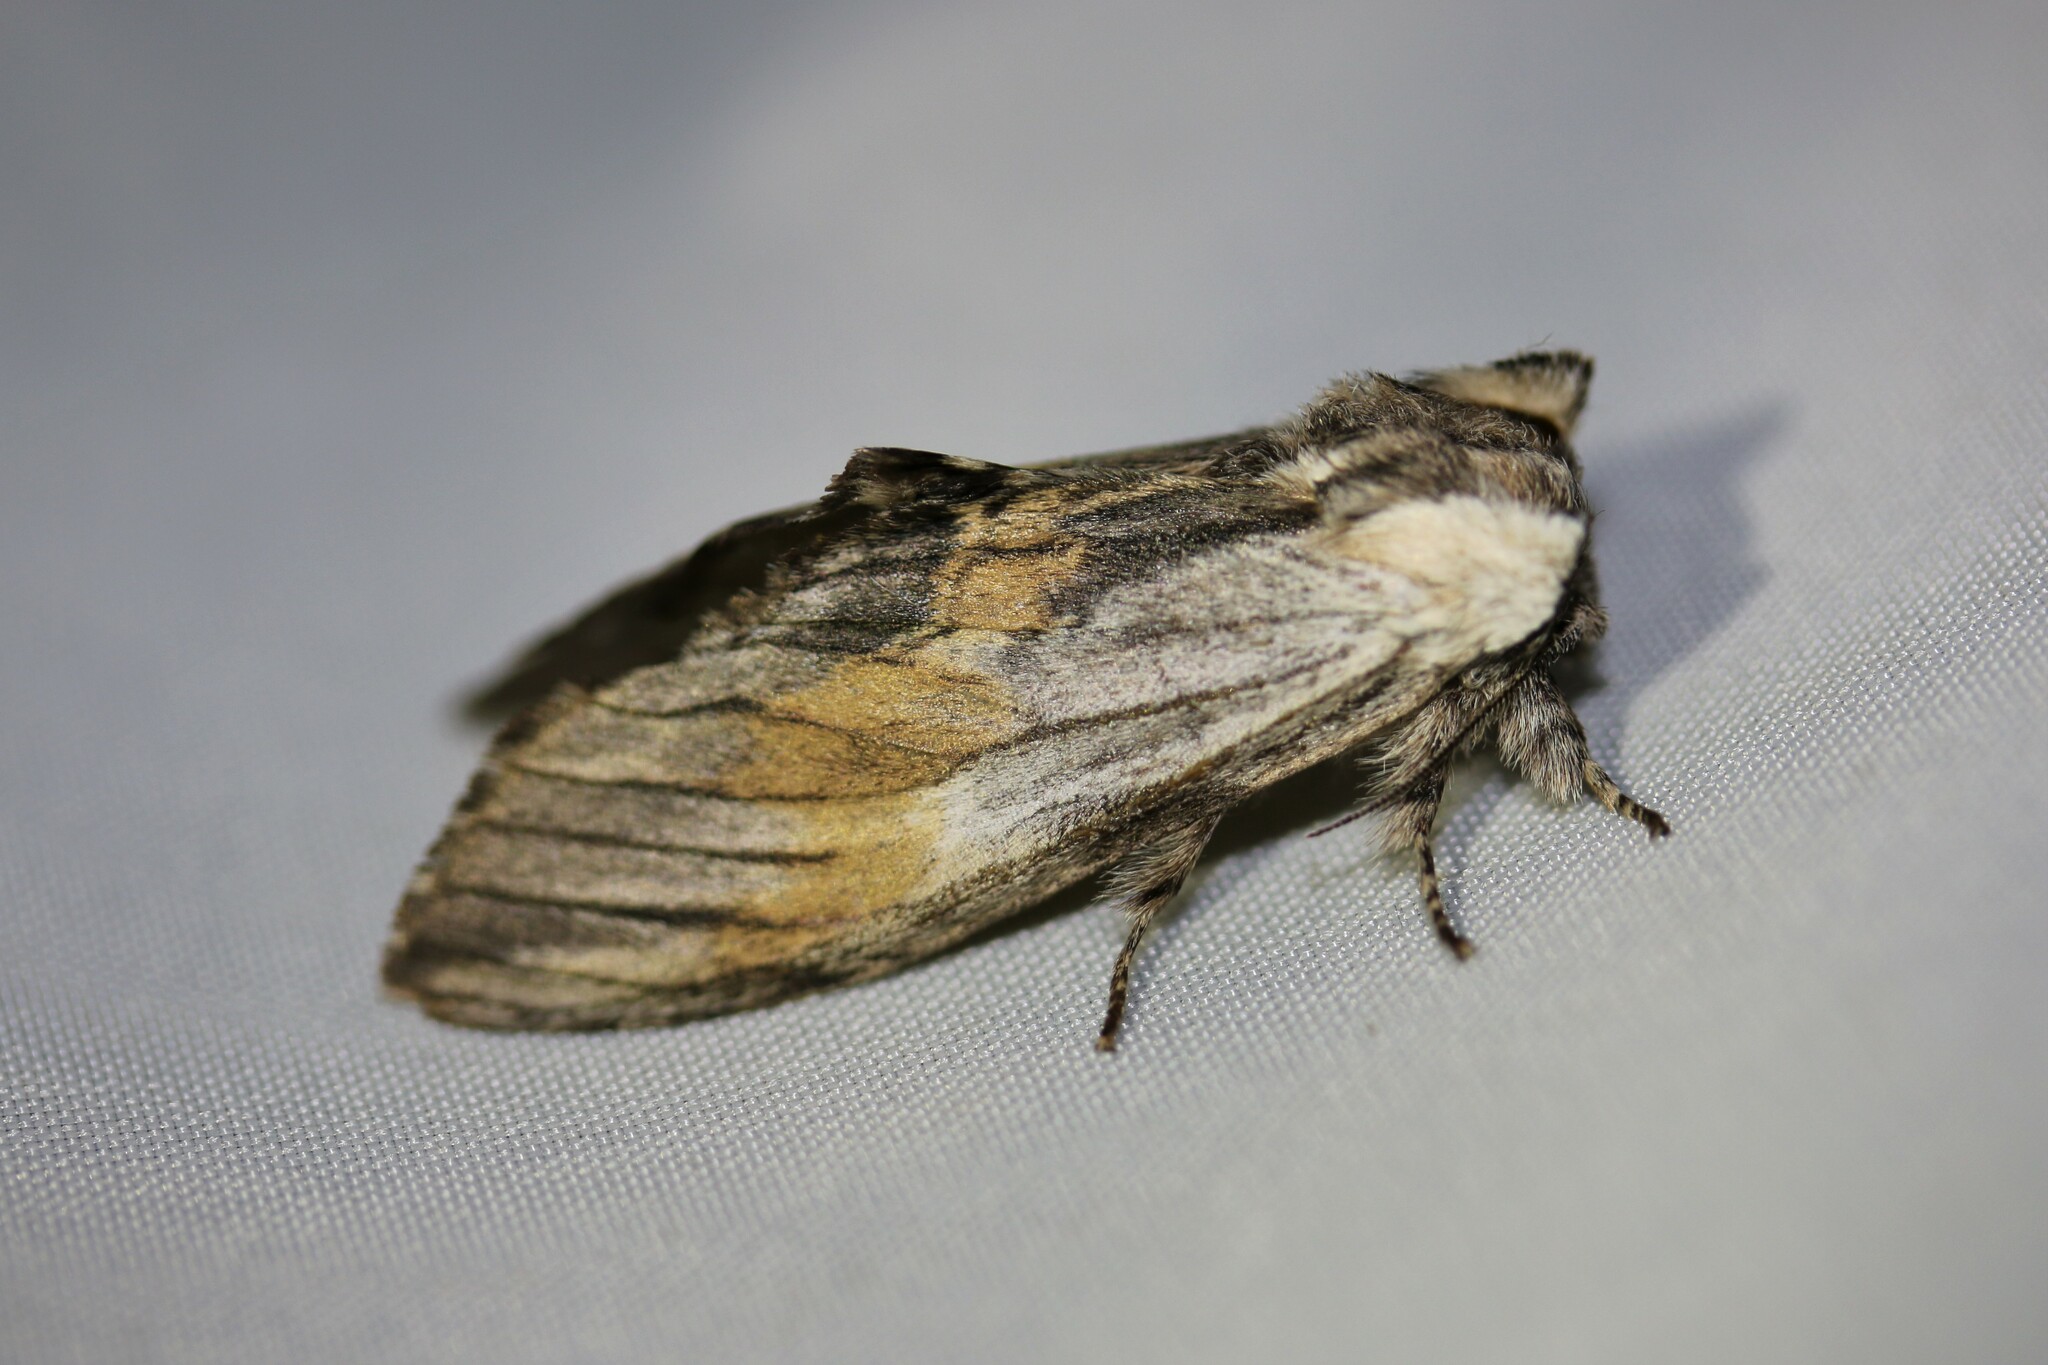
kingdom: Animalia
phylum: Arthropoda
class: Insecta
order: Lepidoptera
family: Notodontidae
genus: Harpyia
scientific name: Harpyia milhauseri
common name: Tawny prominent
